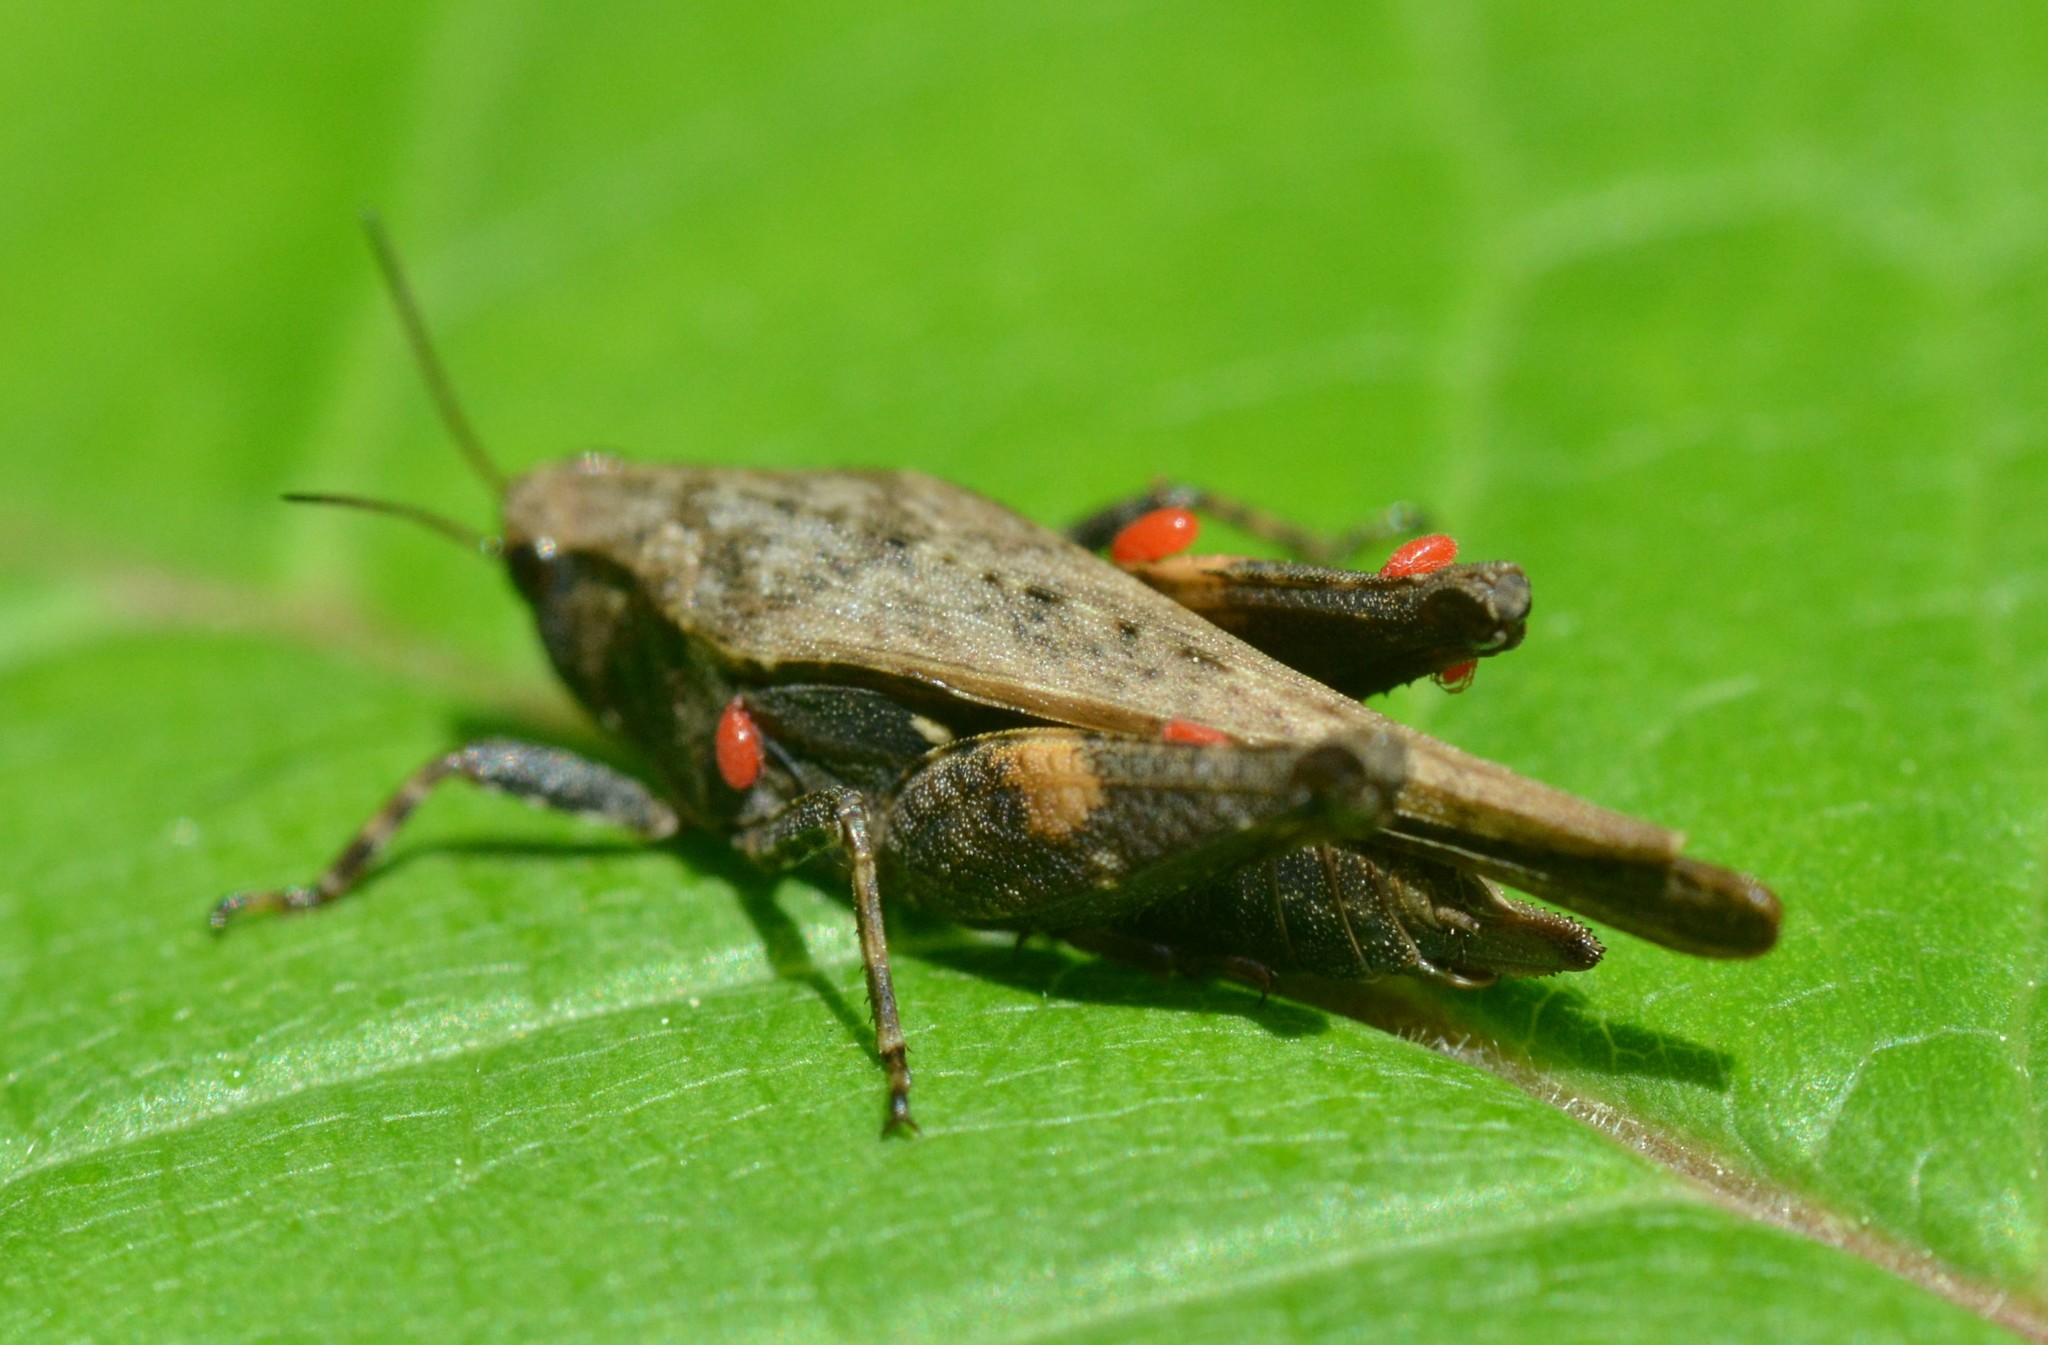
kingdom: Animalia
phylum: Arthropoda
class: Insecta
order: Orthoptera
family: Tetrigidae
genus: Tettigidea
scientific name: Tettigidea laterale
